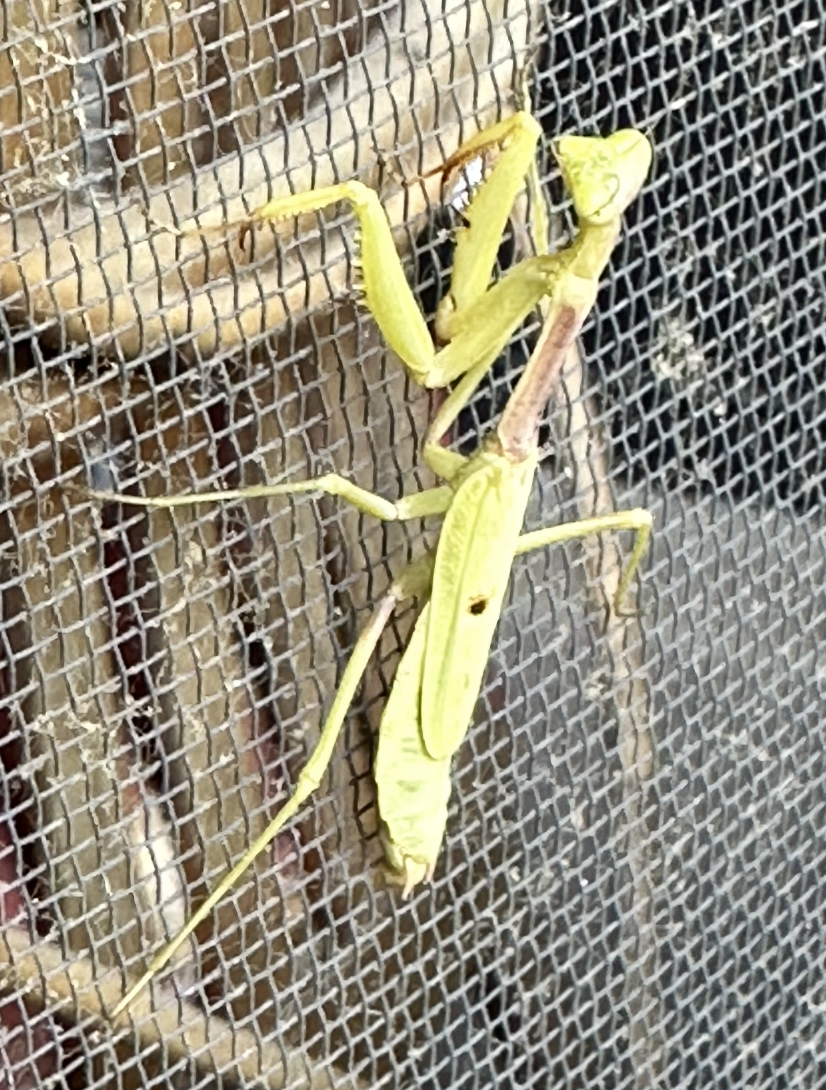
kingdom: Animalia
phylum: Arthropoda
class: Insecta
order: Mantodea
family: Mantidae
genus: Stagmomantis
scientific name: Stagmomantis carolina
